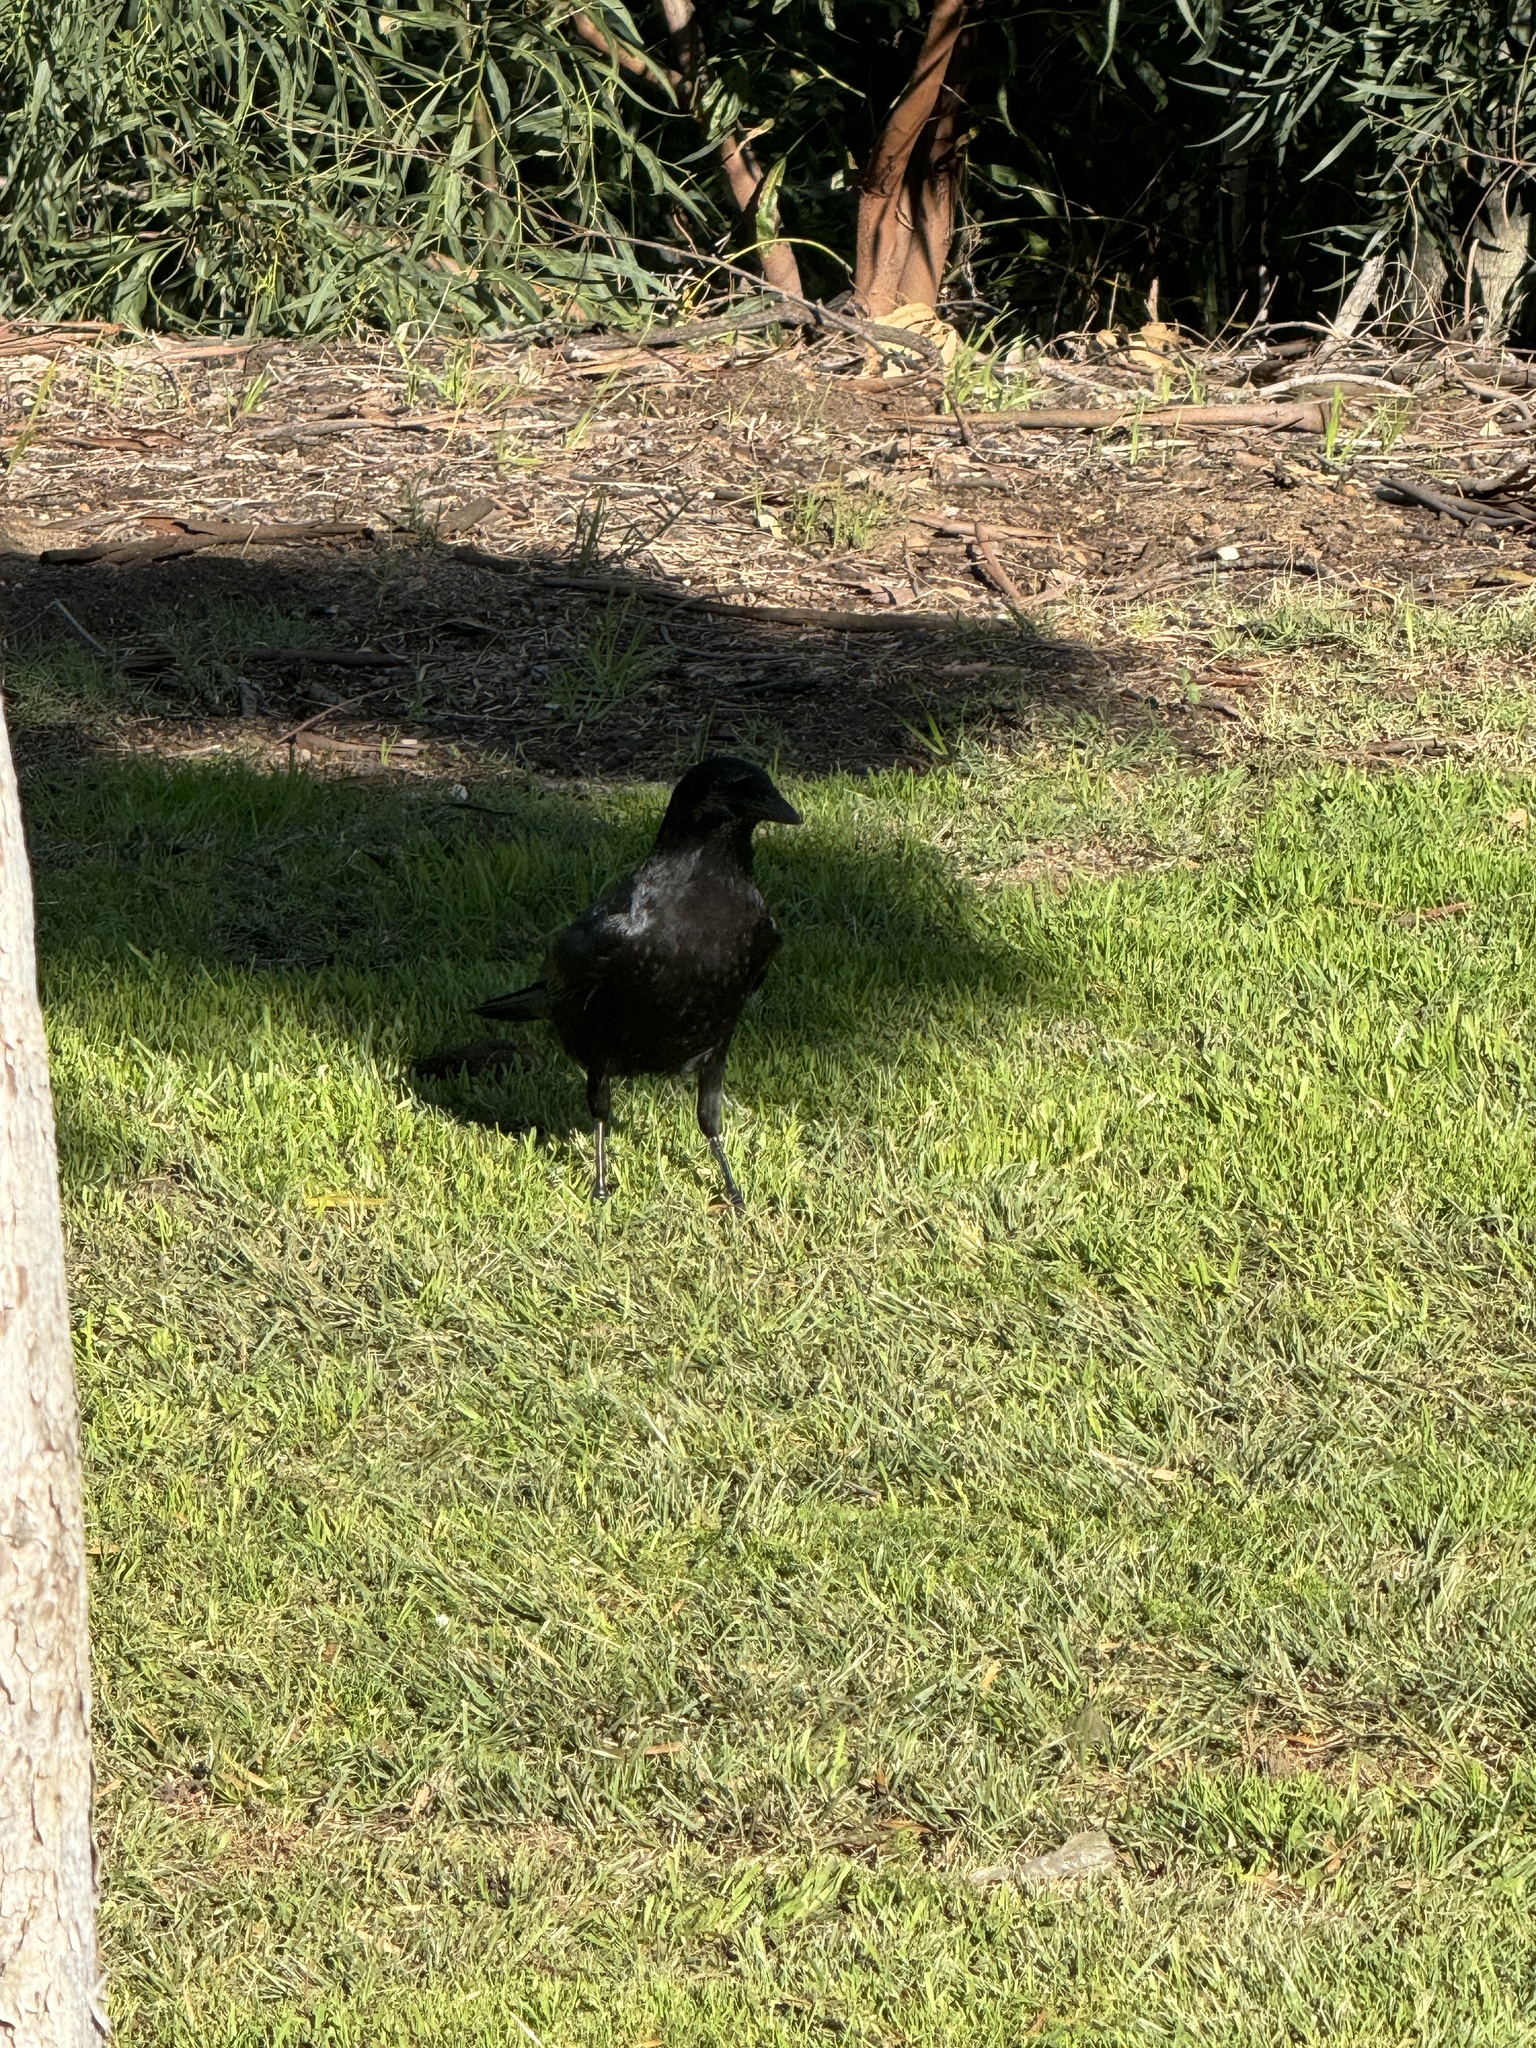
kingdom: Animalia
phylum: Chordata
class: Aves
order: Passeriformes
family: Corvidae
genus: Corvus
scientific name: Corvus brachyrhynchos
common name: American crow
